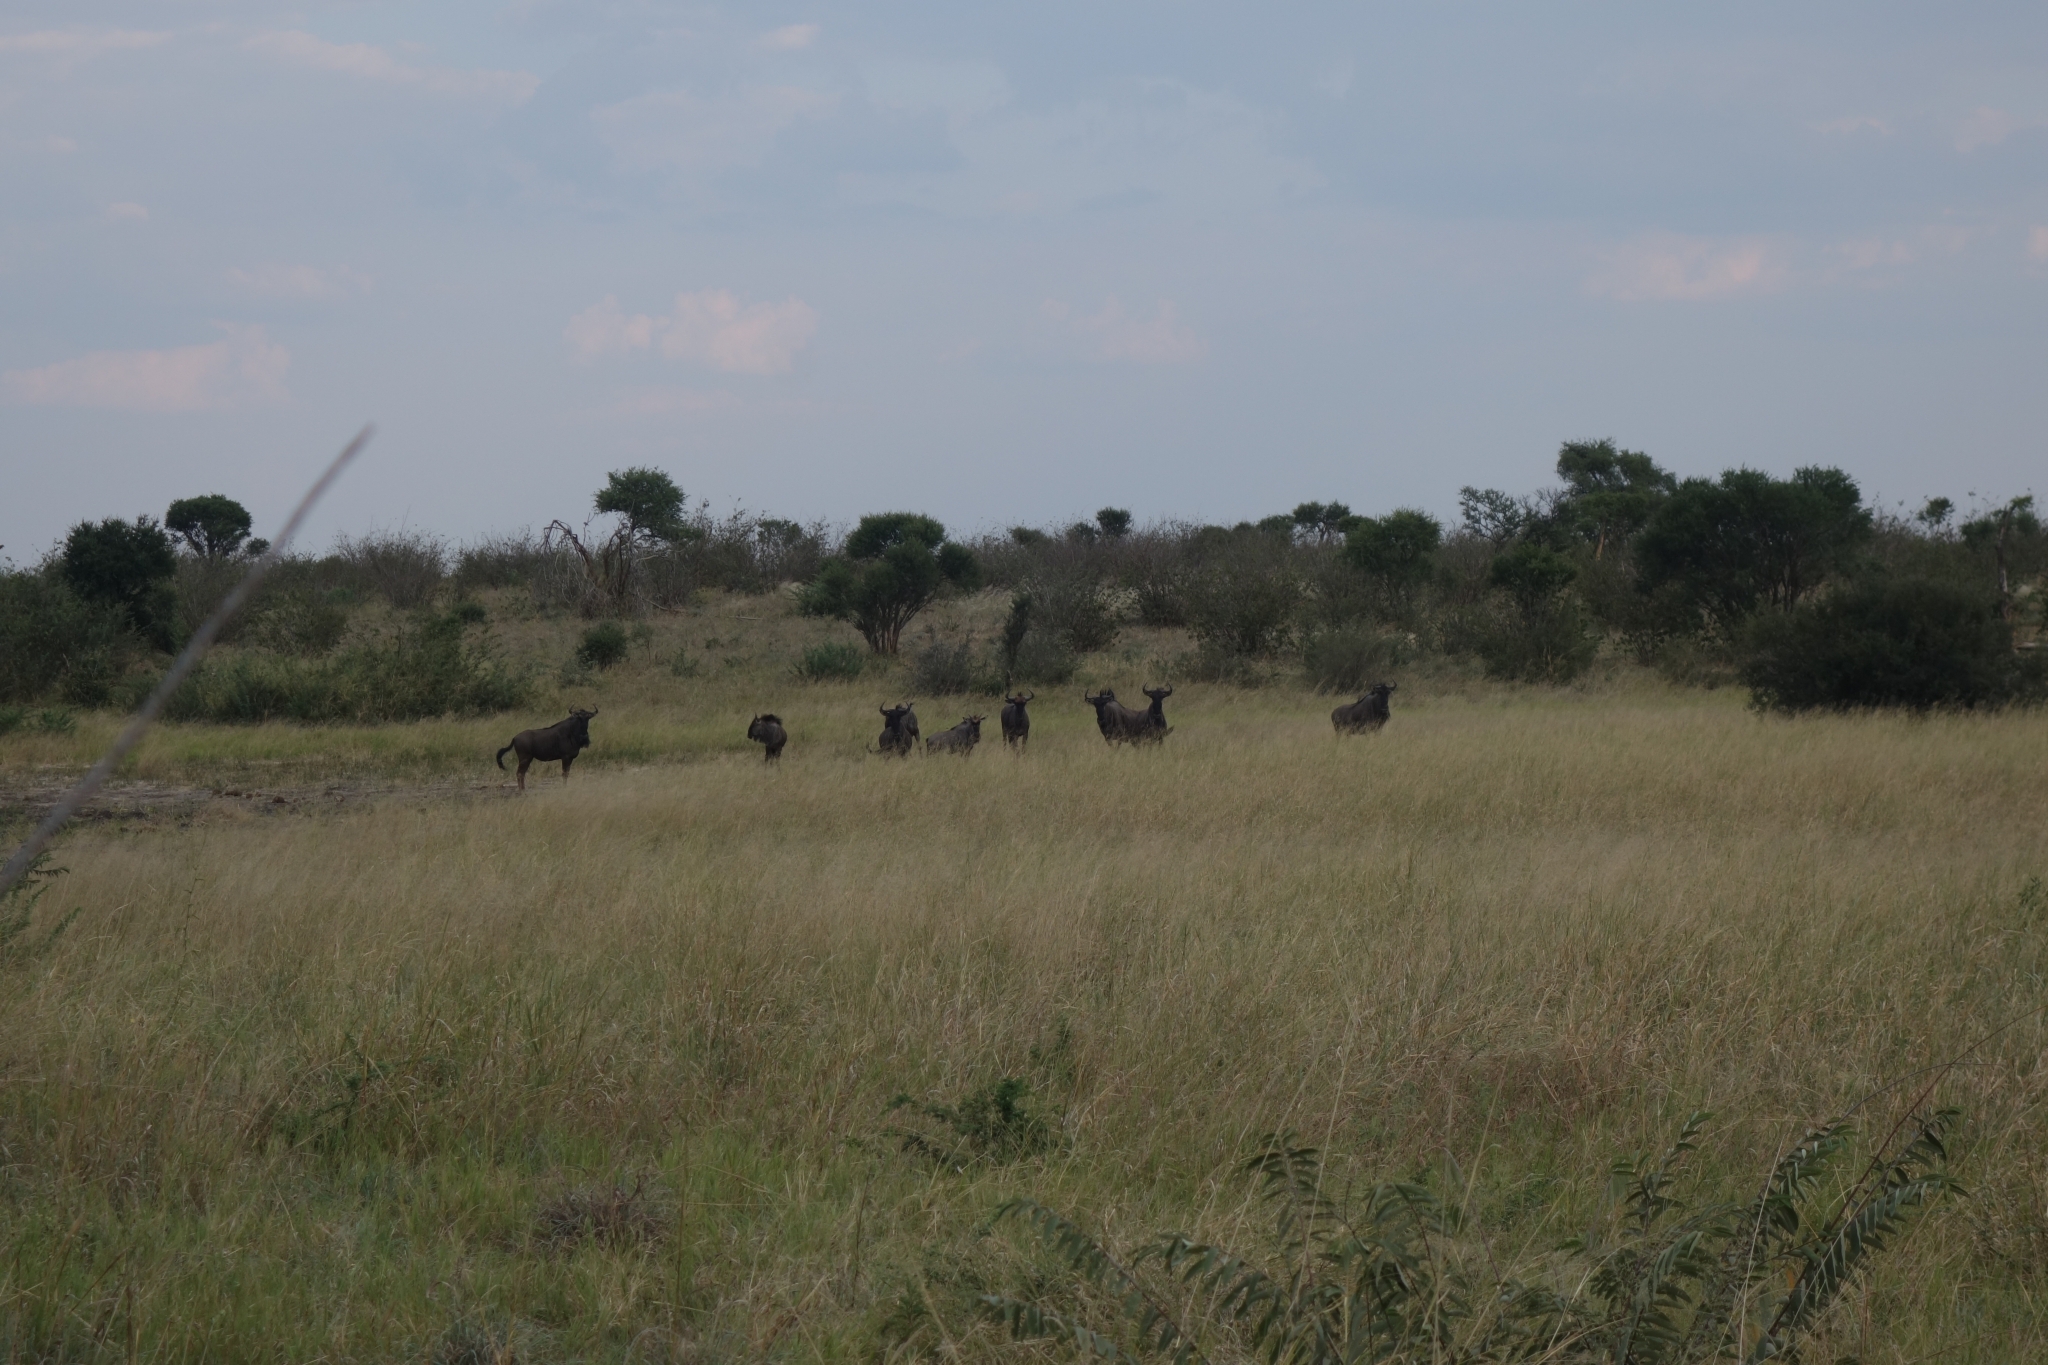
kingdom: Animalia
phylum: Chordata
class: Mammalia
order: Artiodactyla
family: Bovidae
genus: Connochaetes
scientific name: Connochaetes taurinus
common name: Blue wildebeest
